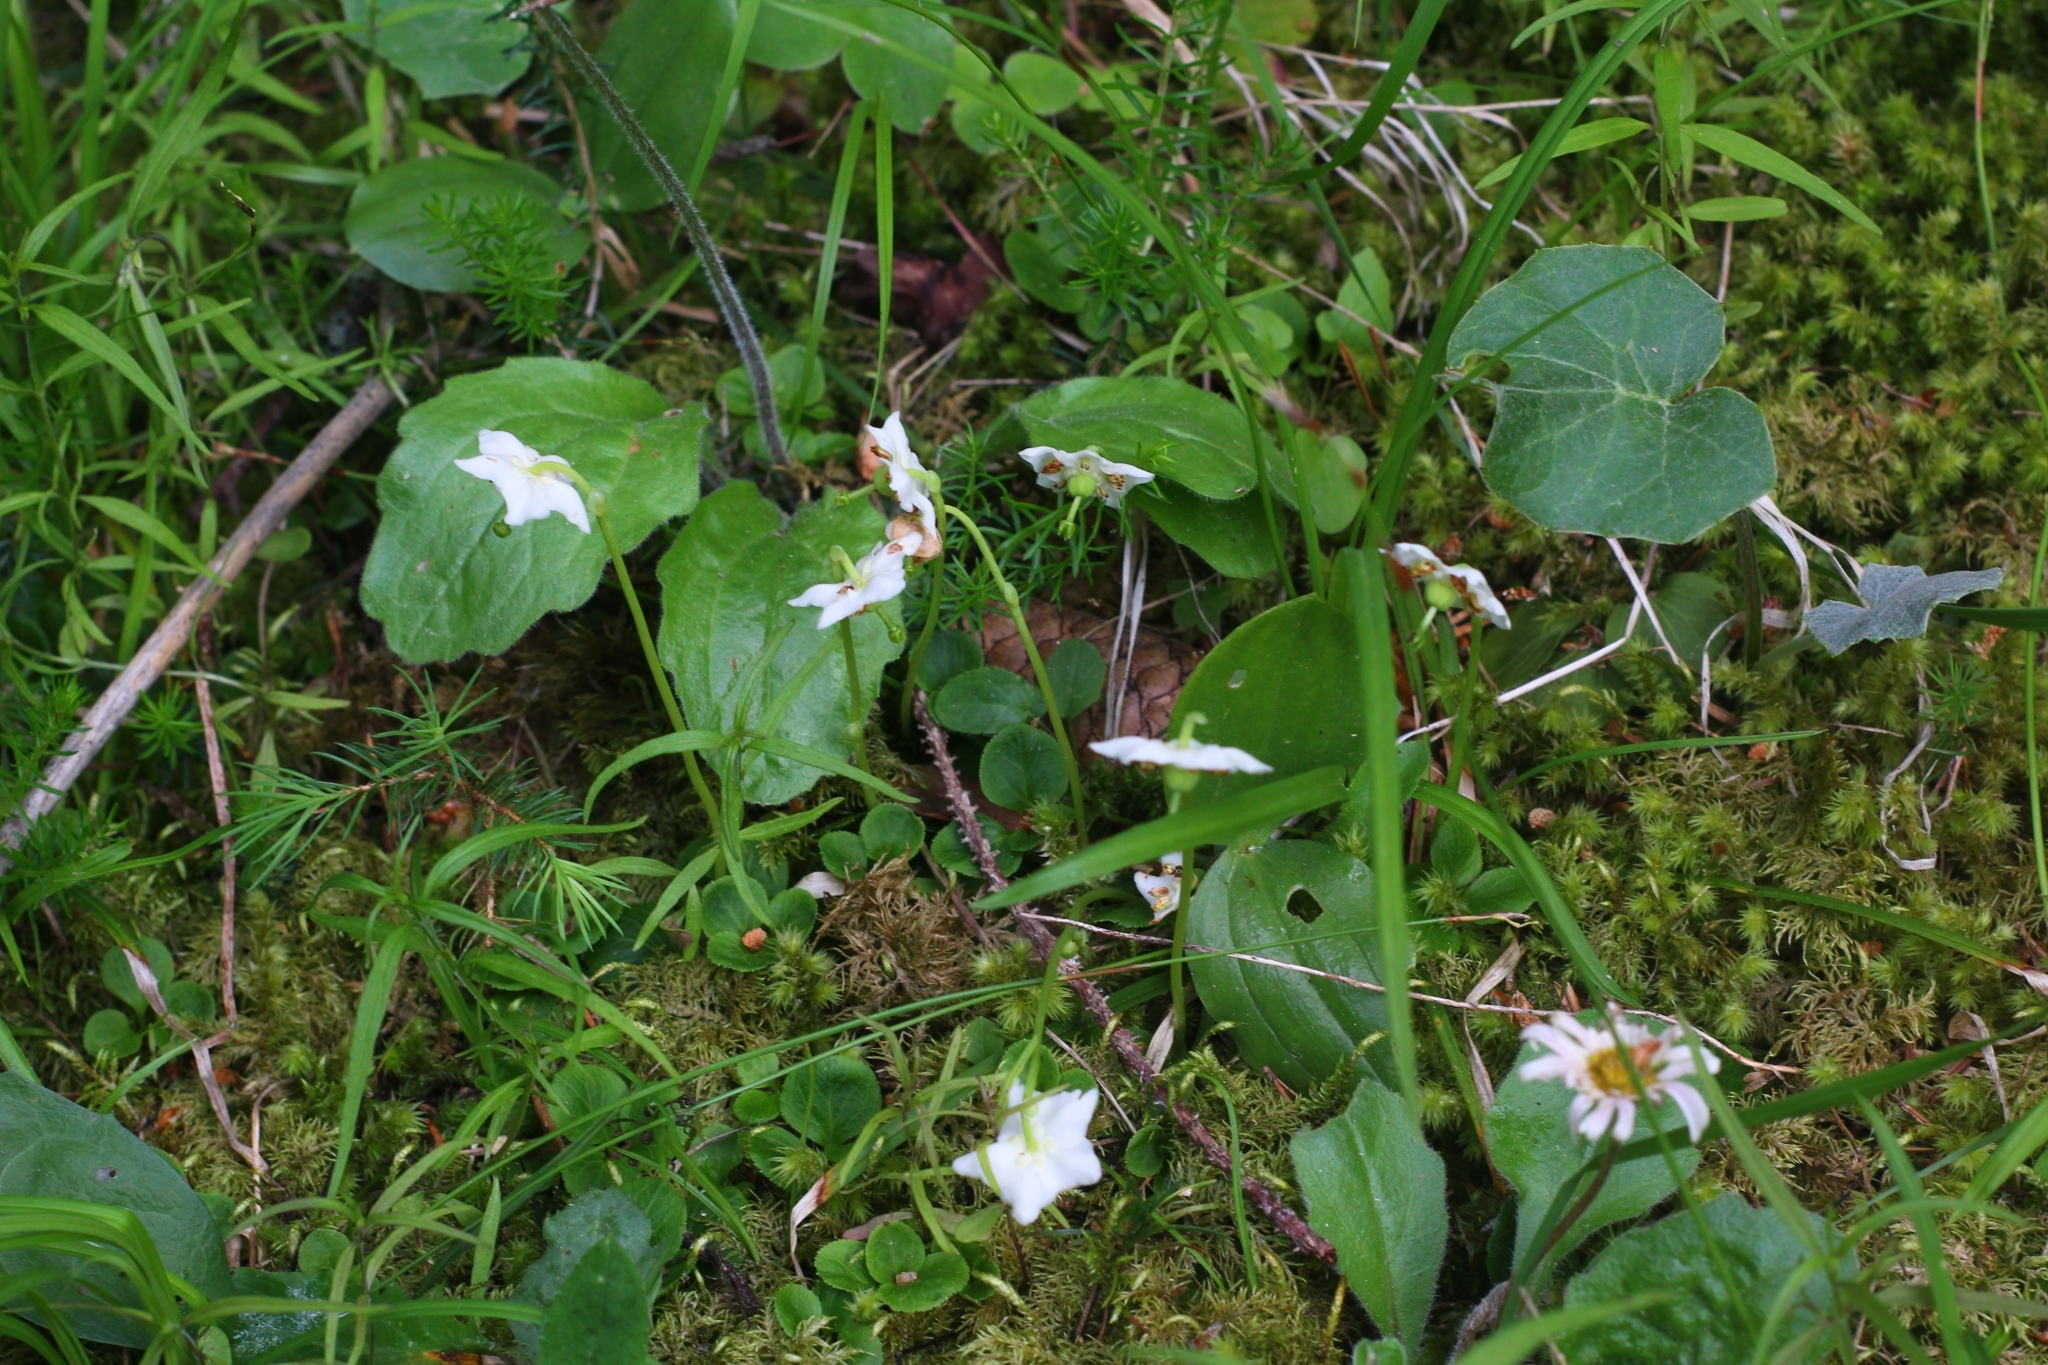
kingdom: Plantae
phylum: Tracheophyta
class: Magnoliopsida
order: Ericales
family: Ericaceae
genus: Moneses
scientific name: Moneses uniflora
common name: One-flowered wintergreen
